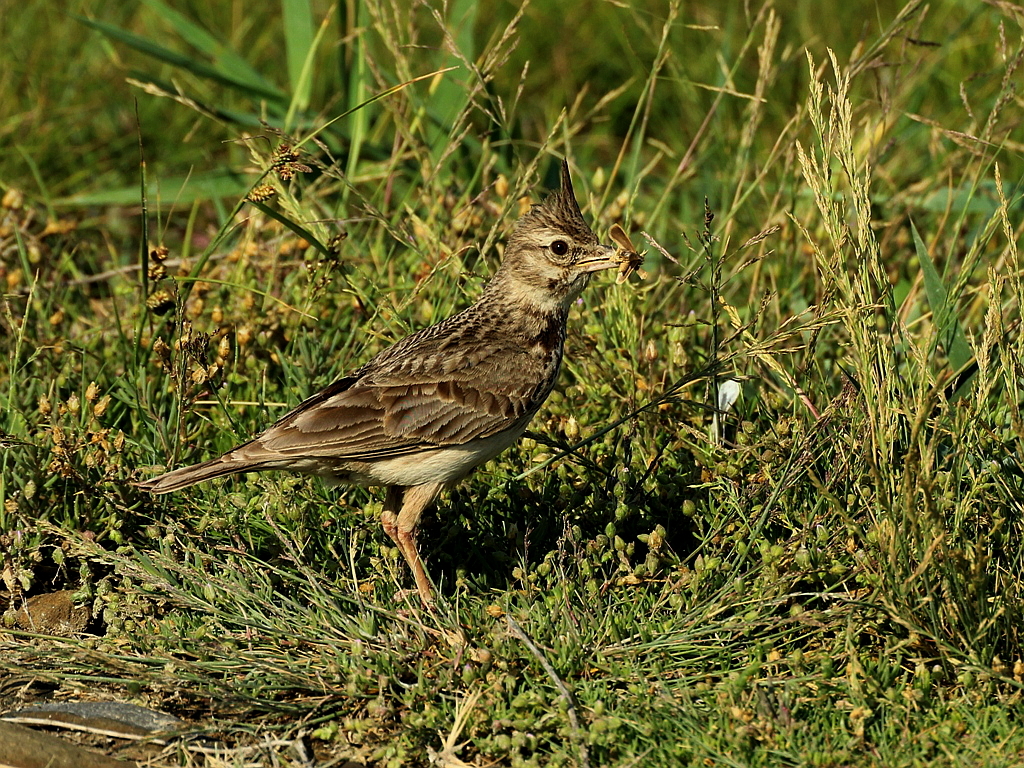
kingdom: Animalia
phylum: Chordata
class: Aves
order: Passeriformes
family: Alaudidae
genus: Galerida
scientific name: Galerida cristata
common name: Crested lark
